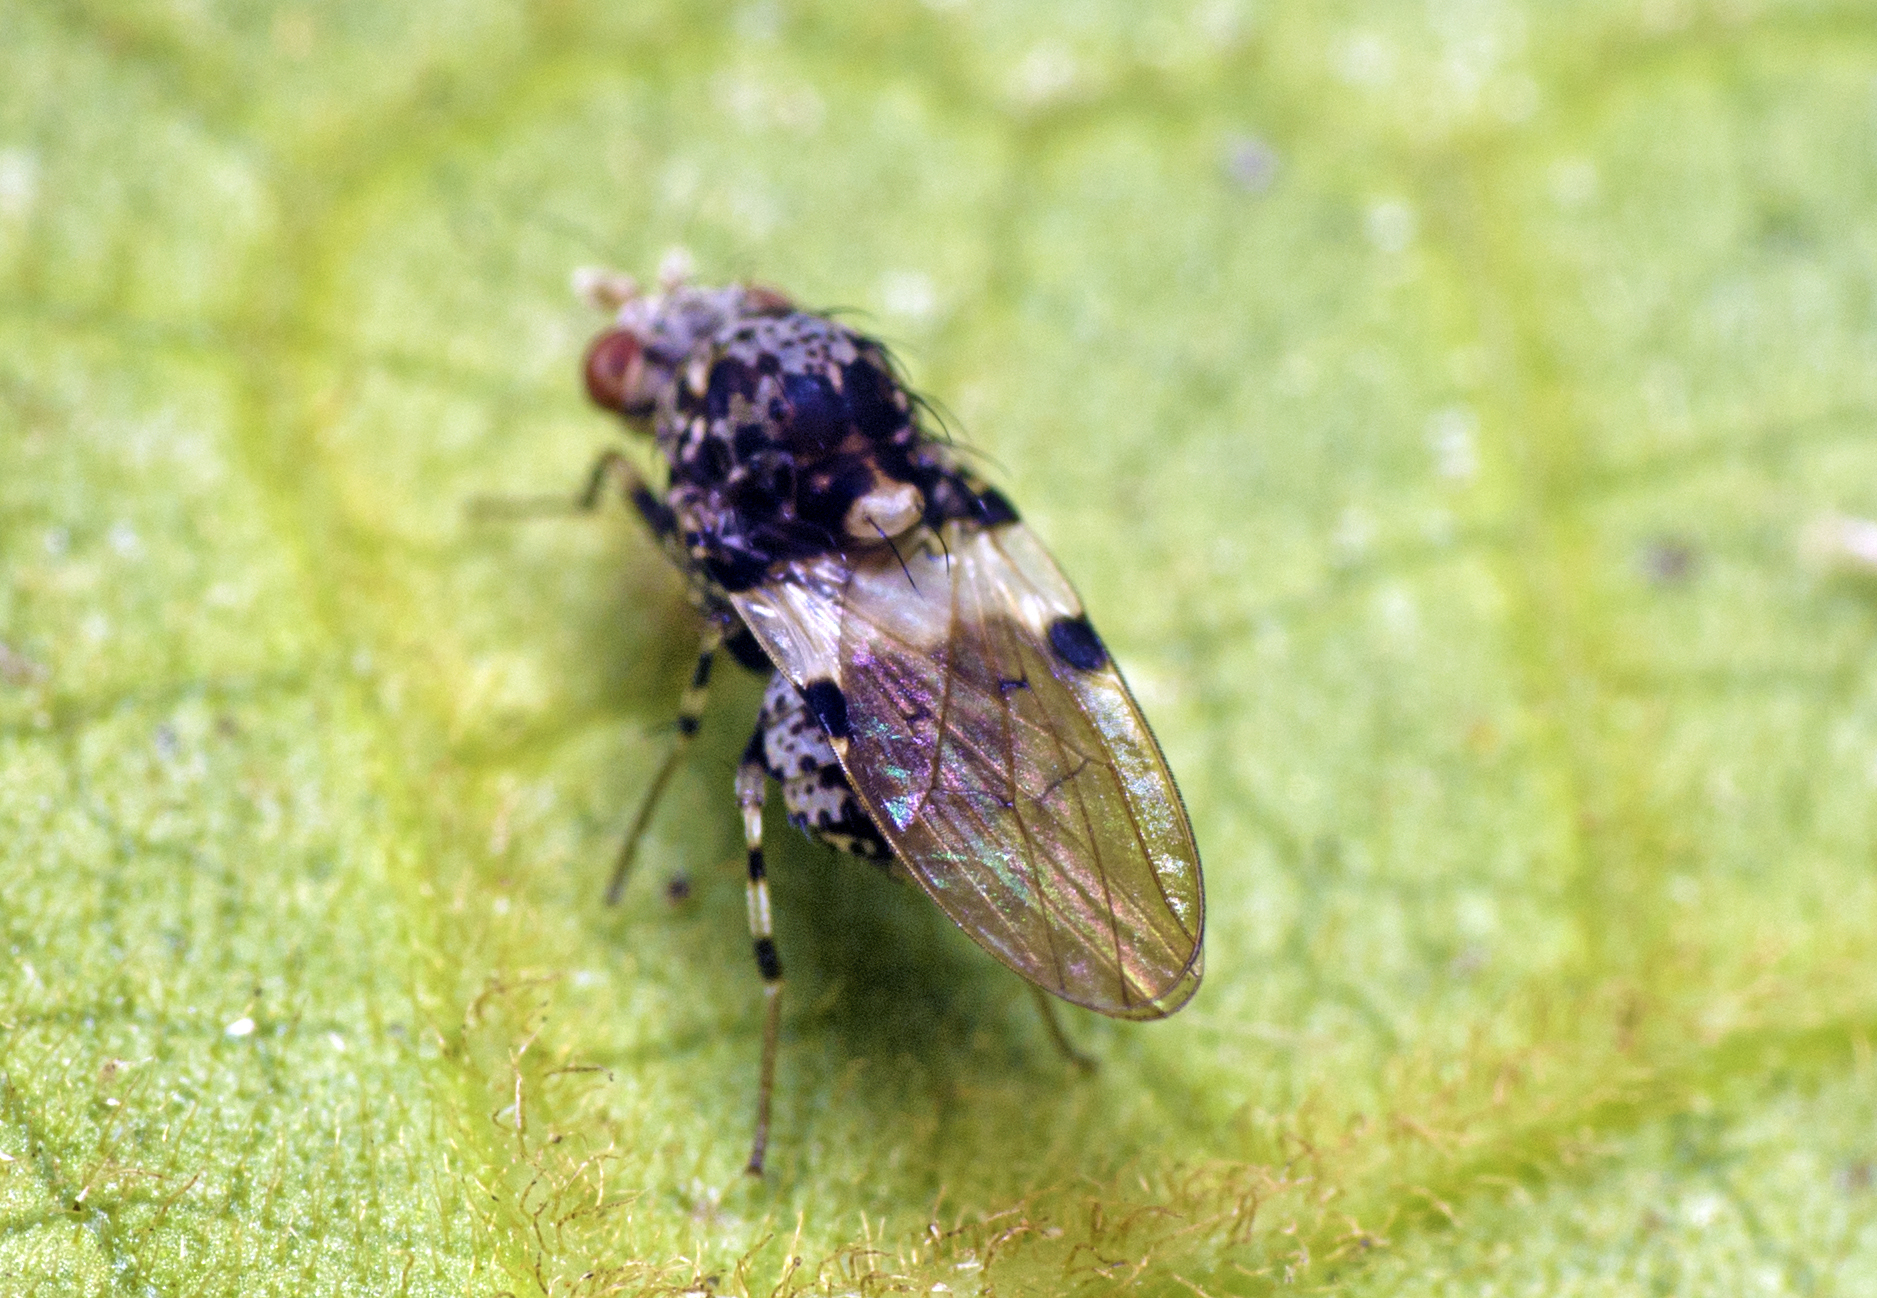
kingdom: Animalia
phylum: Arthropoda
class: Insecta
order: Diptera
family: Lauxaniidae
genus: Sapromyza
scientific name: Sapromyza pictigera
